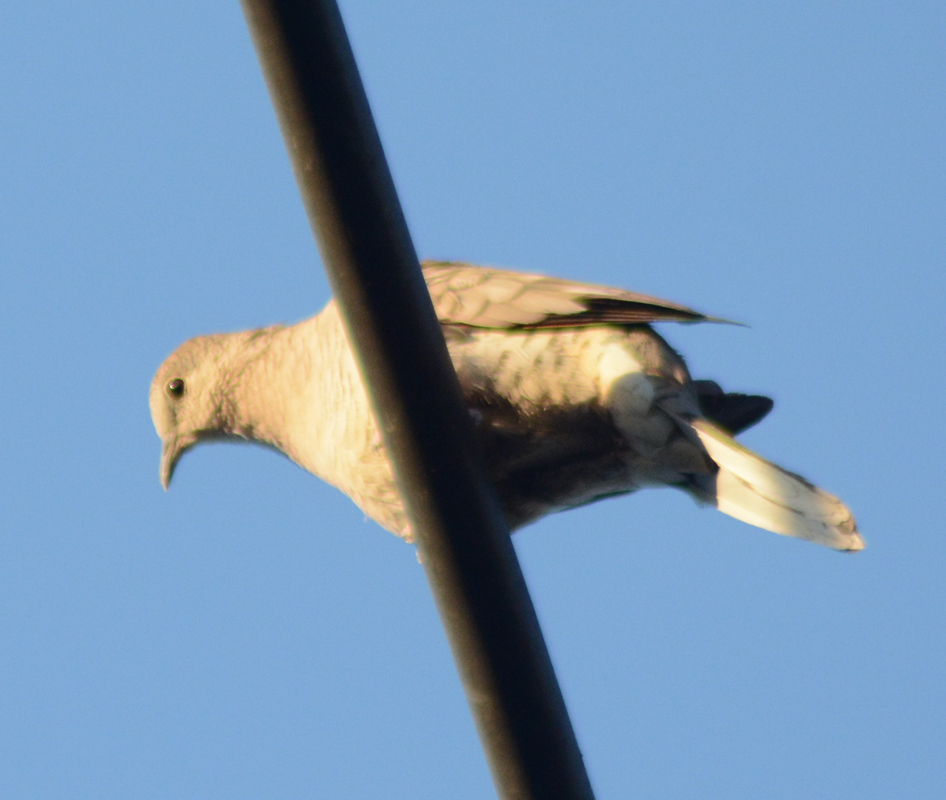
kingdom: Animalia
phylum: Chordata
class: Aves
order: Columbiformes
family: Columbidae
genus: Columbina
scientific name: Columbina inca
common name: Inca dove
